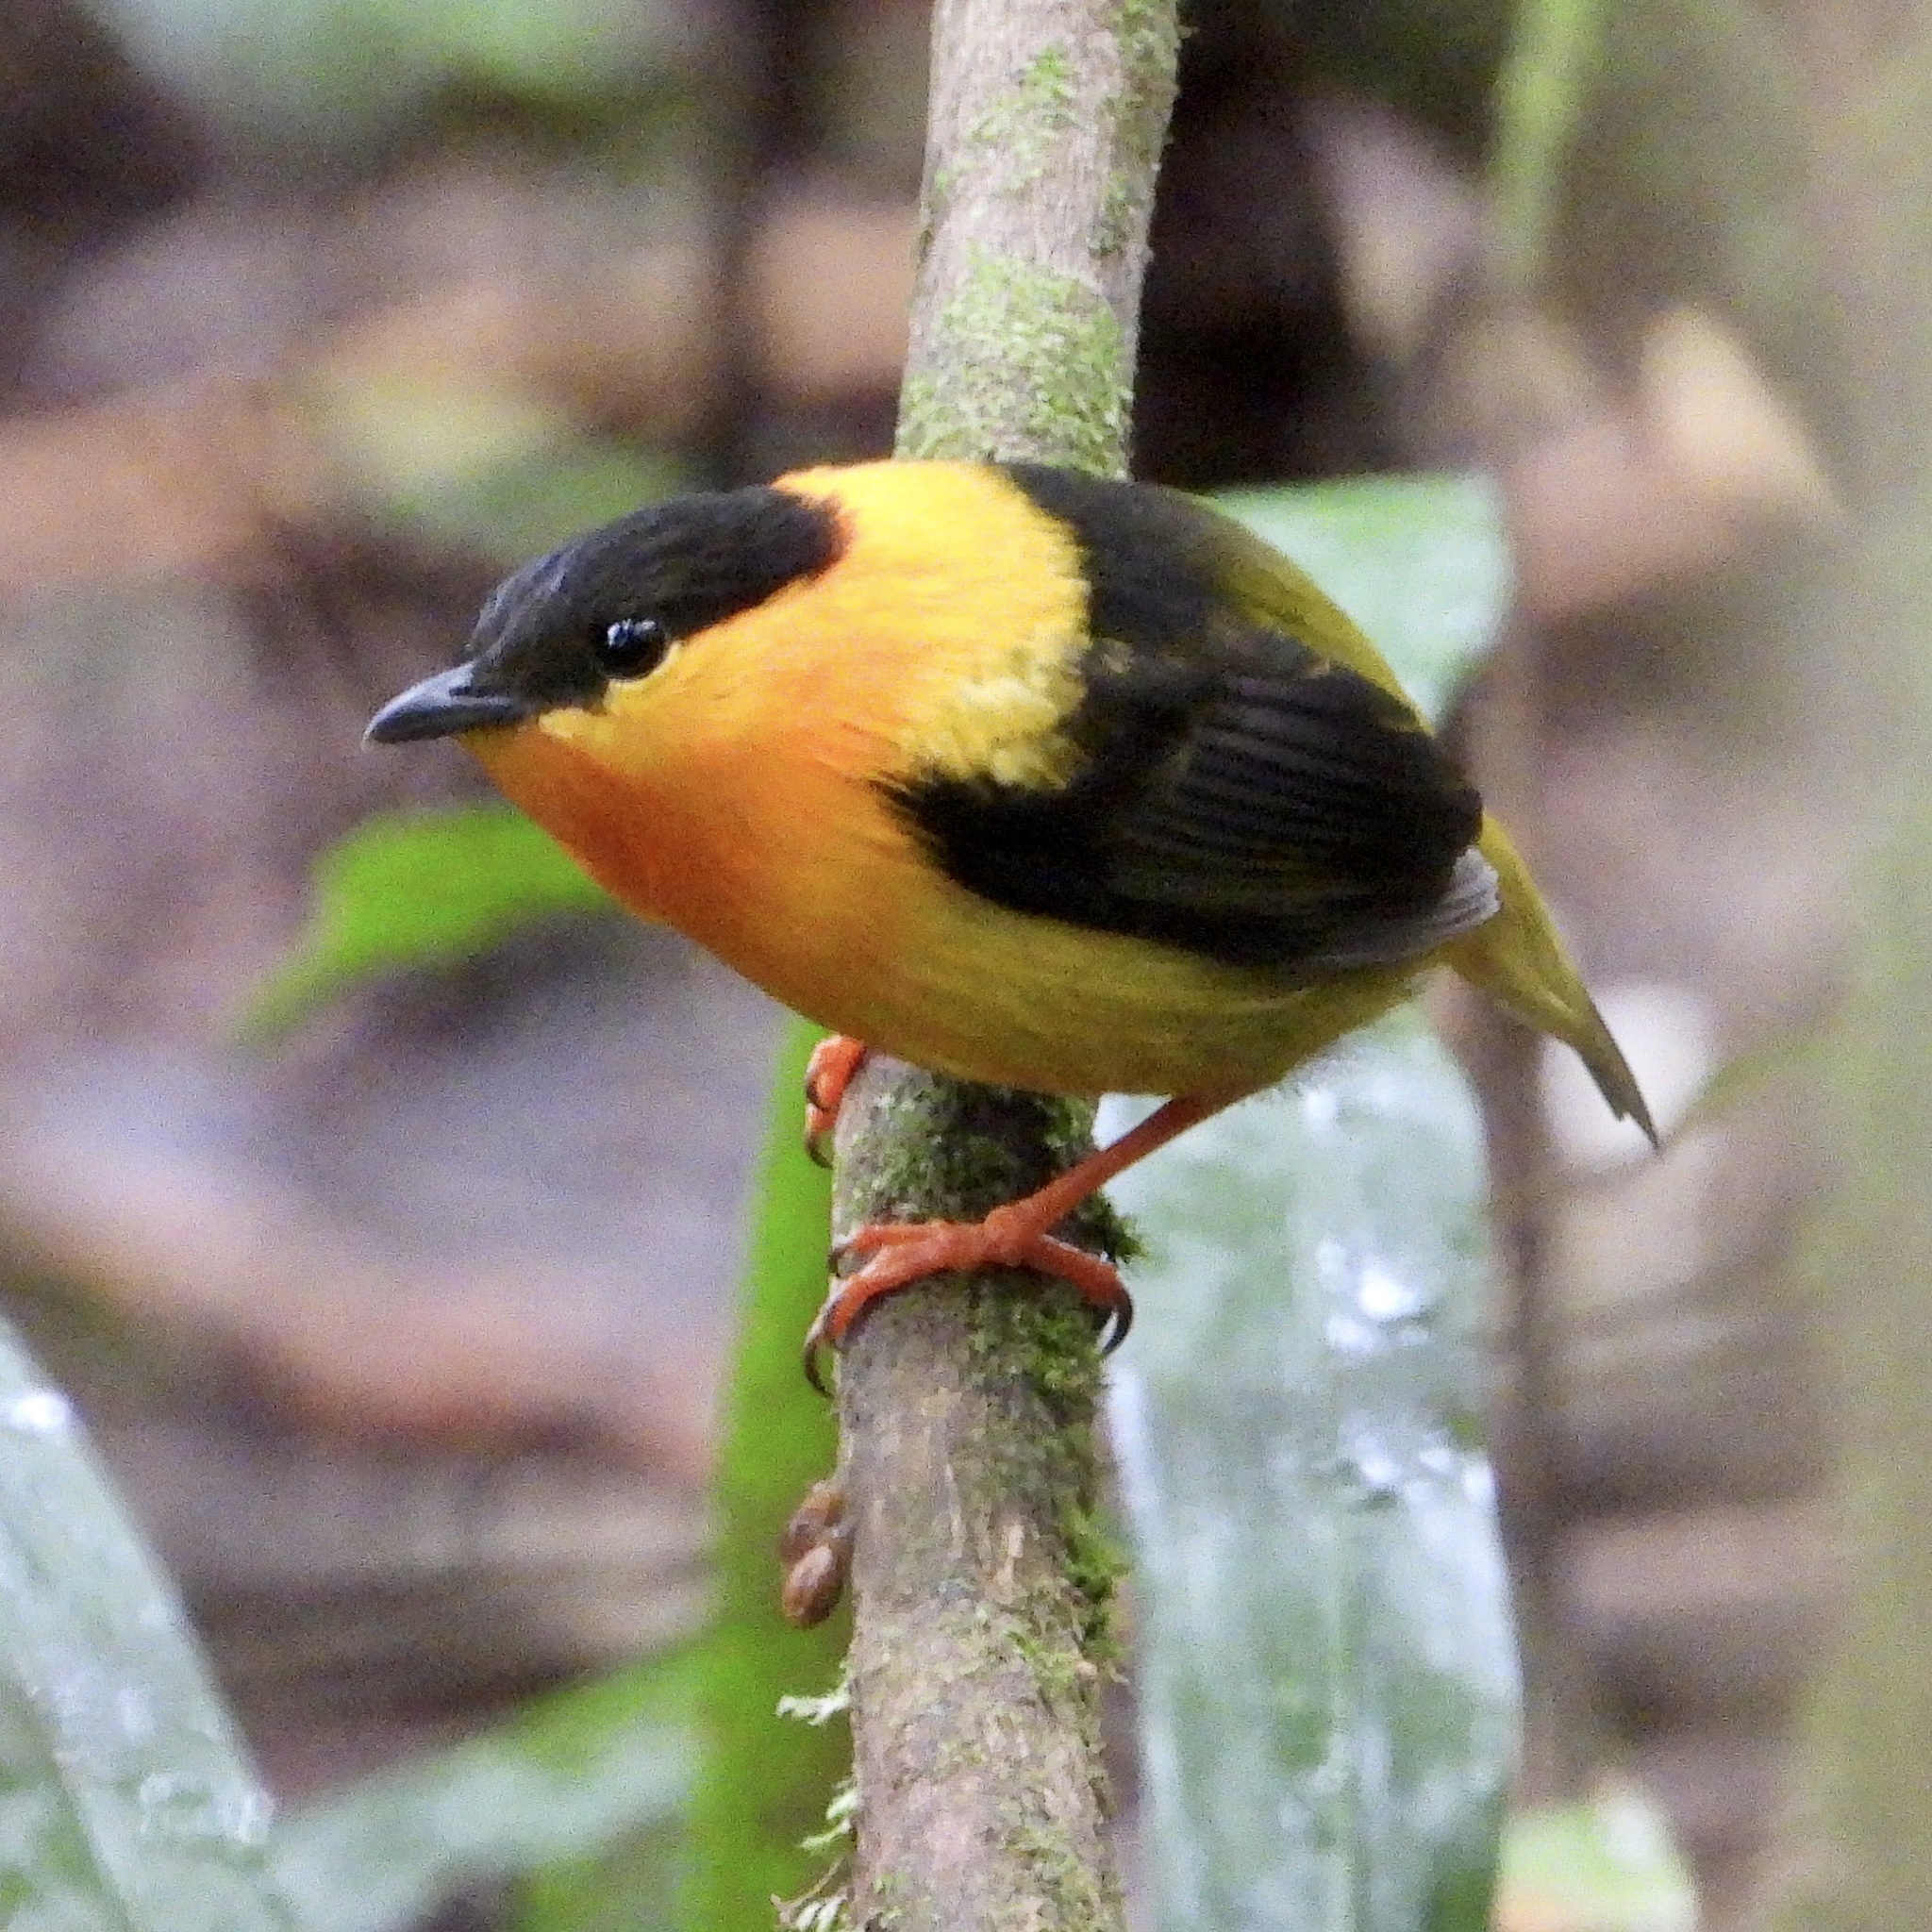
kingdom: Animalia
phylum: Chordata
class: Aves
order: Passeriformes
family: Pipridae
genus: Manacus
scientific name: Manacus aurantiacus
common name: Orange-collared manakin
